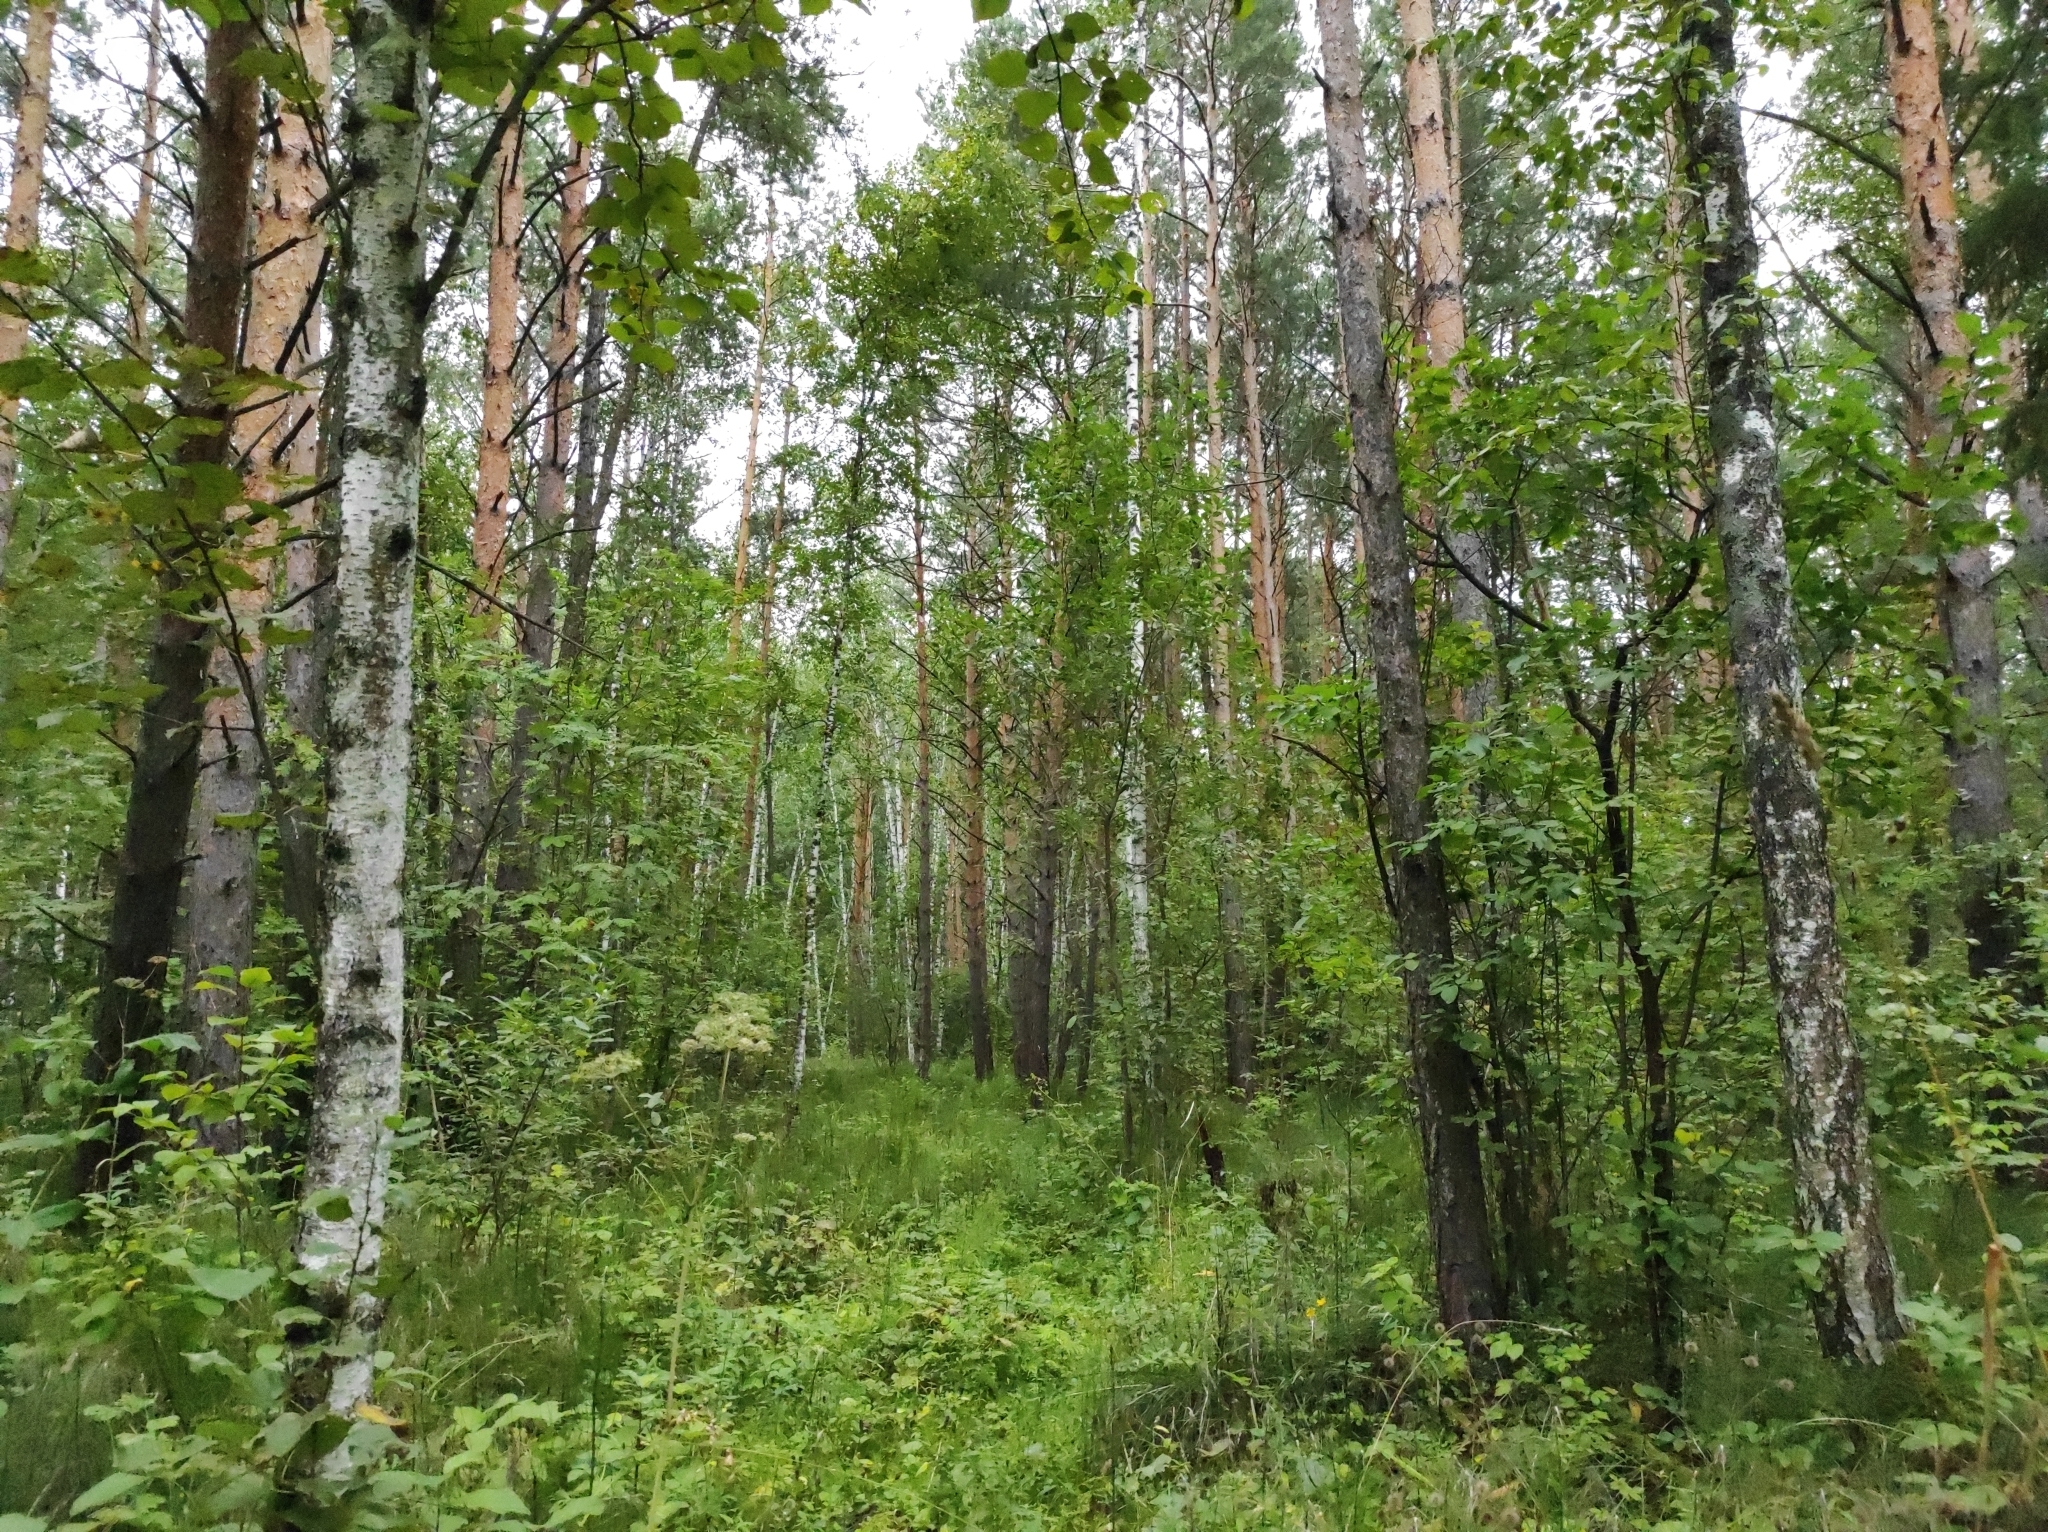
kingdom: Plantae
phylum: Tracheophyta
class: Magnoliopsida
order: Fagales
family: Betulaceae
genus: Betula
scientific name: Betula pubescens
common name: Downy birch
